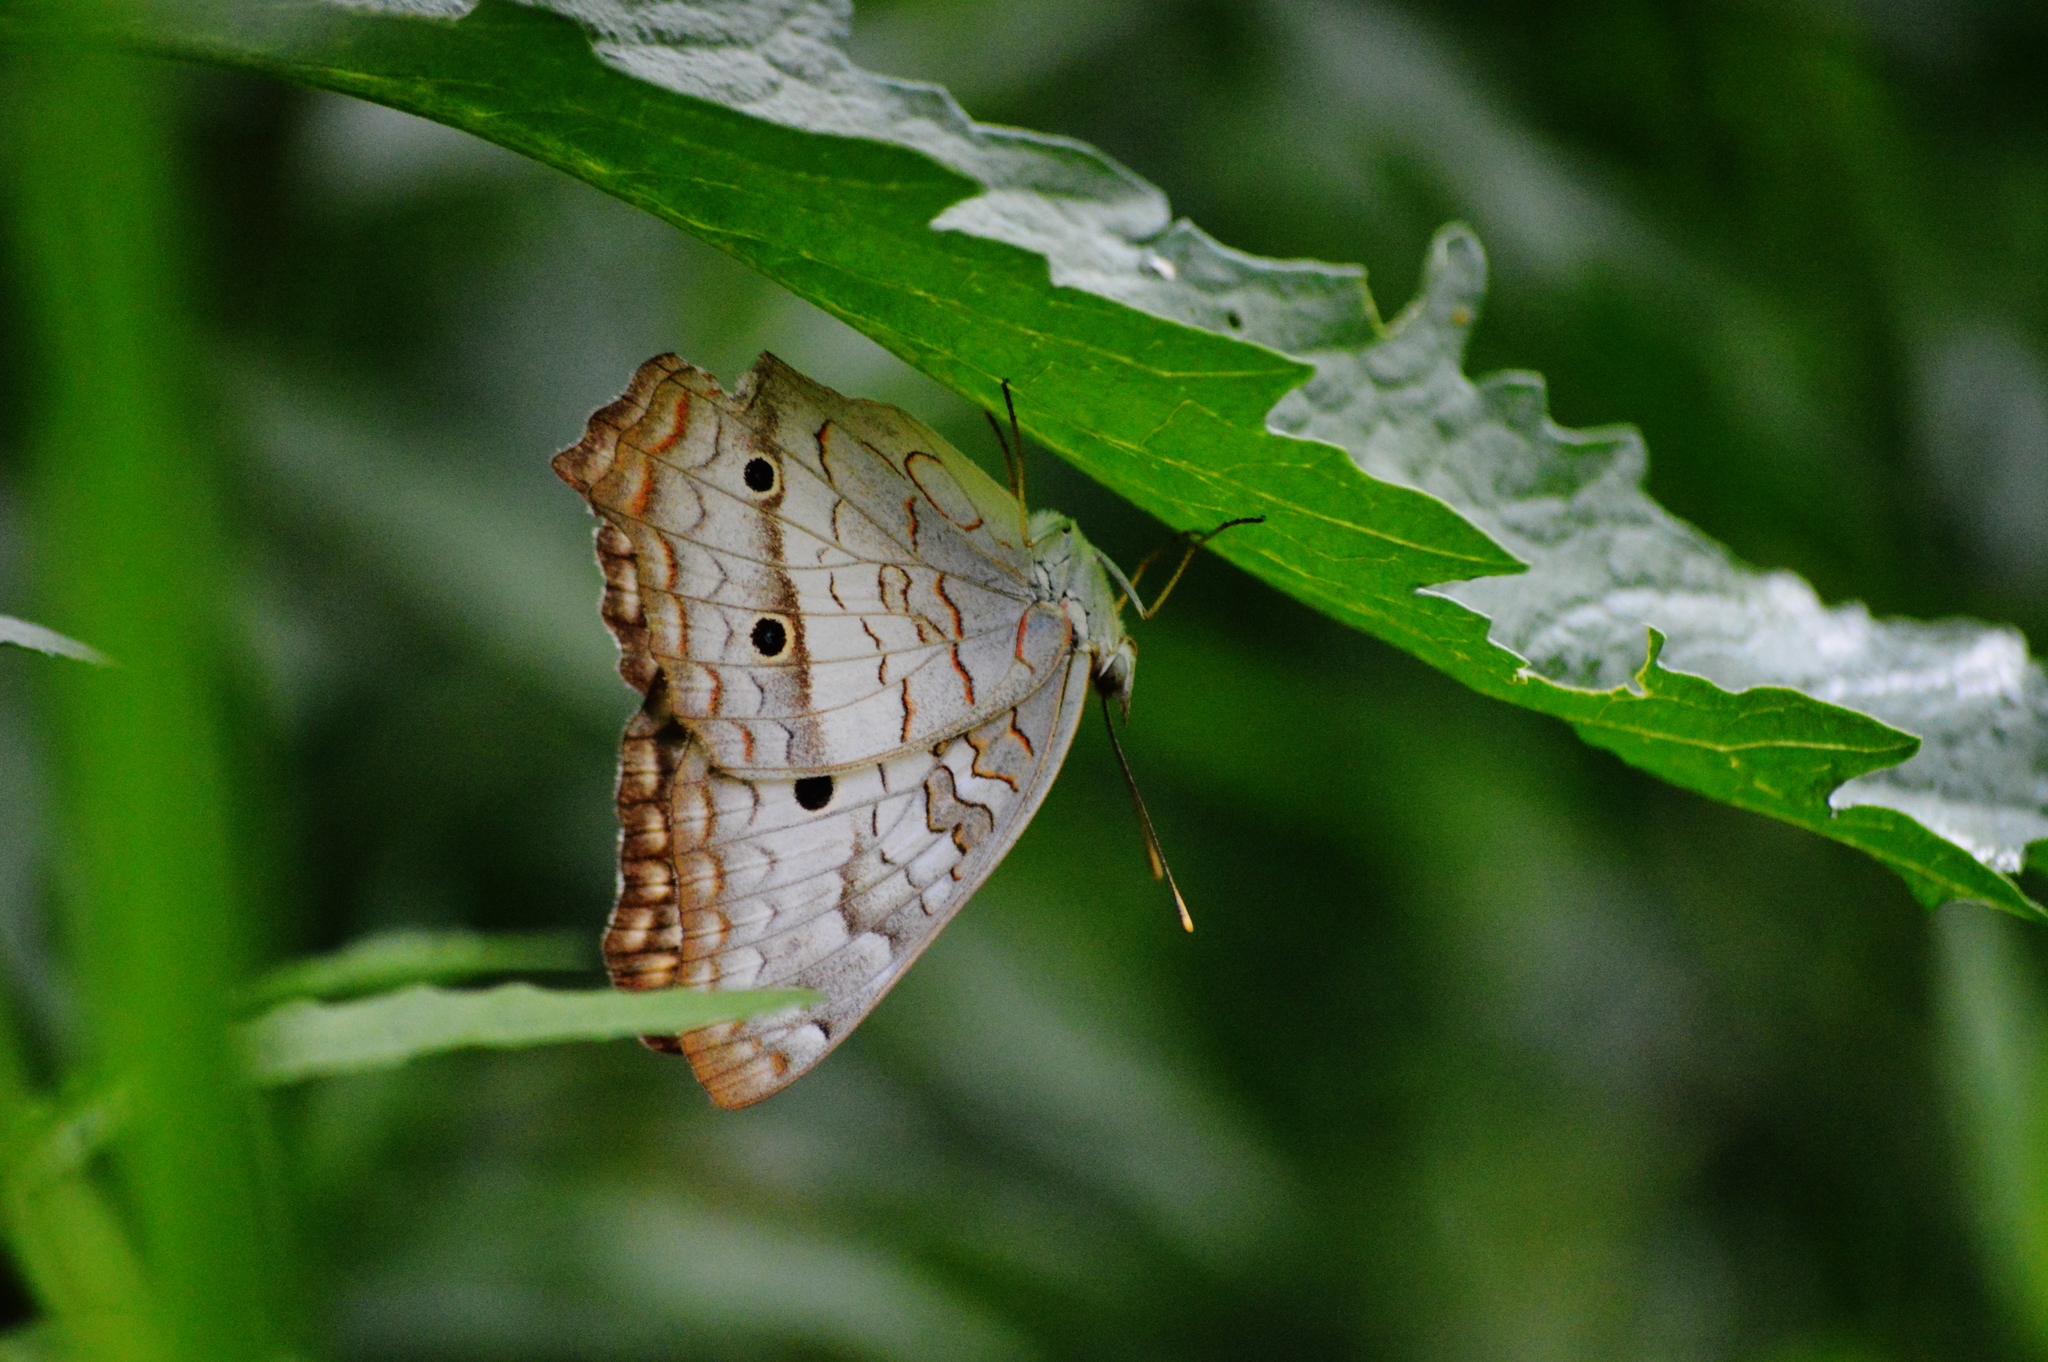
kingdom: Animalia
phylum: Arthropoda
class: Insecta
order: Lepidoptera
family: Nymphalidae
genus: Anartia
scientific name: Anartia jatrophae
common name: White peacock
